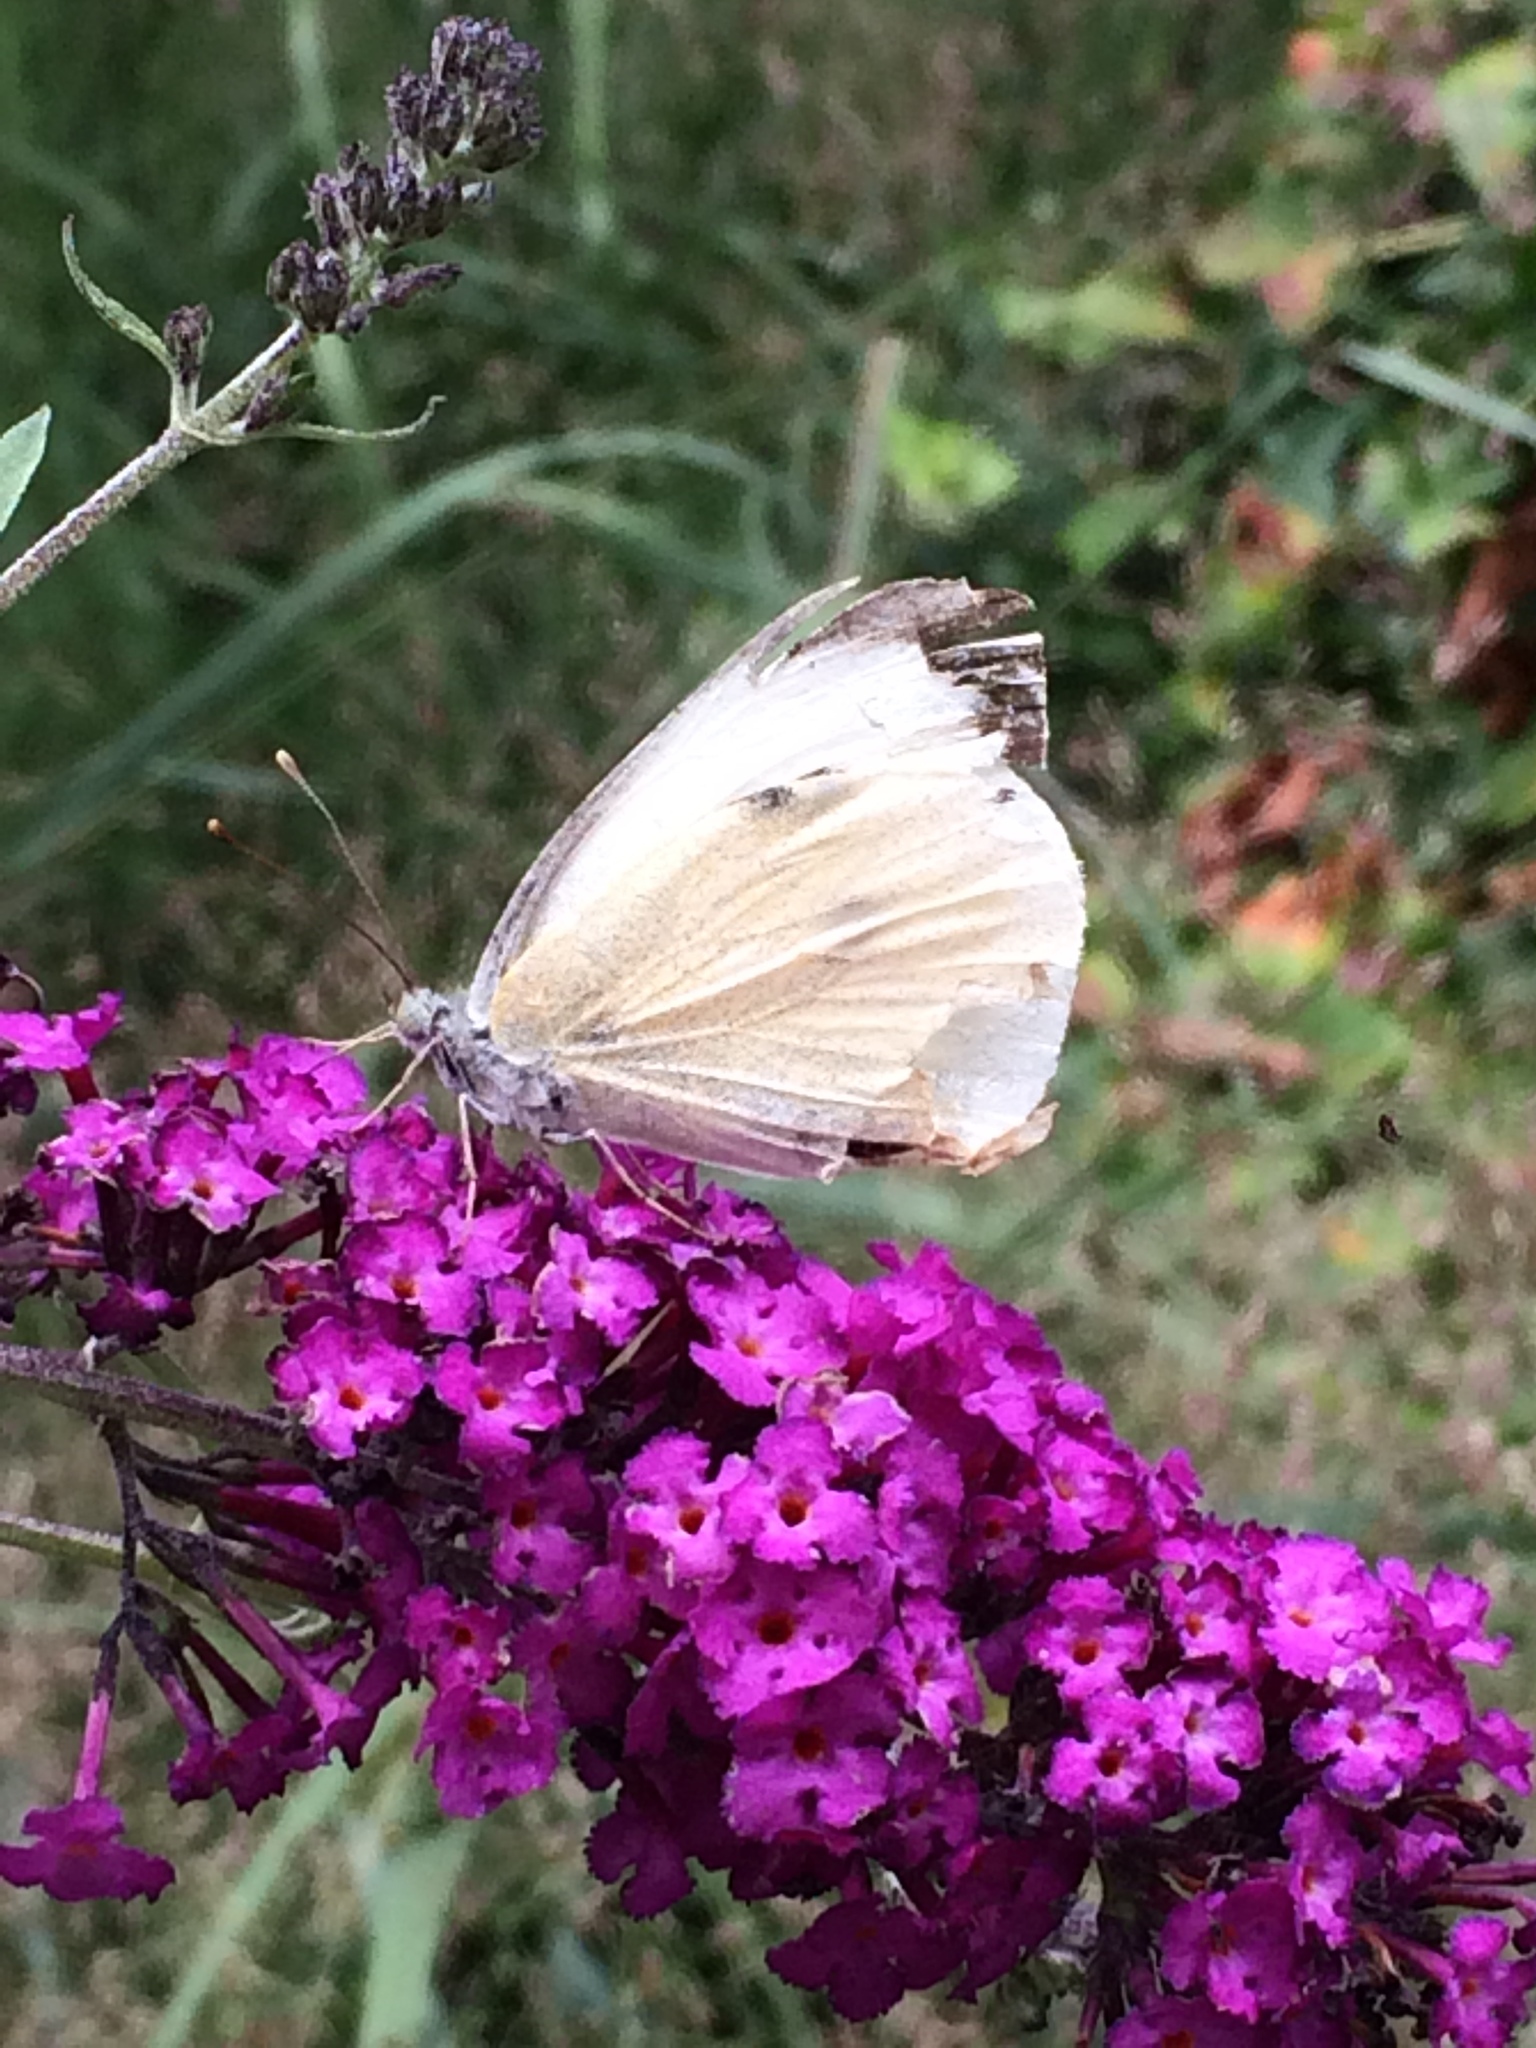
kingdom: Animalia
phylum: Arthropoda
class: Insecta
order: Lepidoptera
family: Pieridae
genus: Pieris
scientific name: Pieris brassicae
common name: Large white
